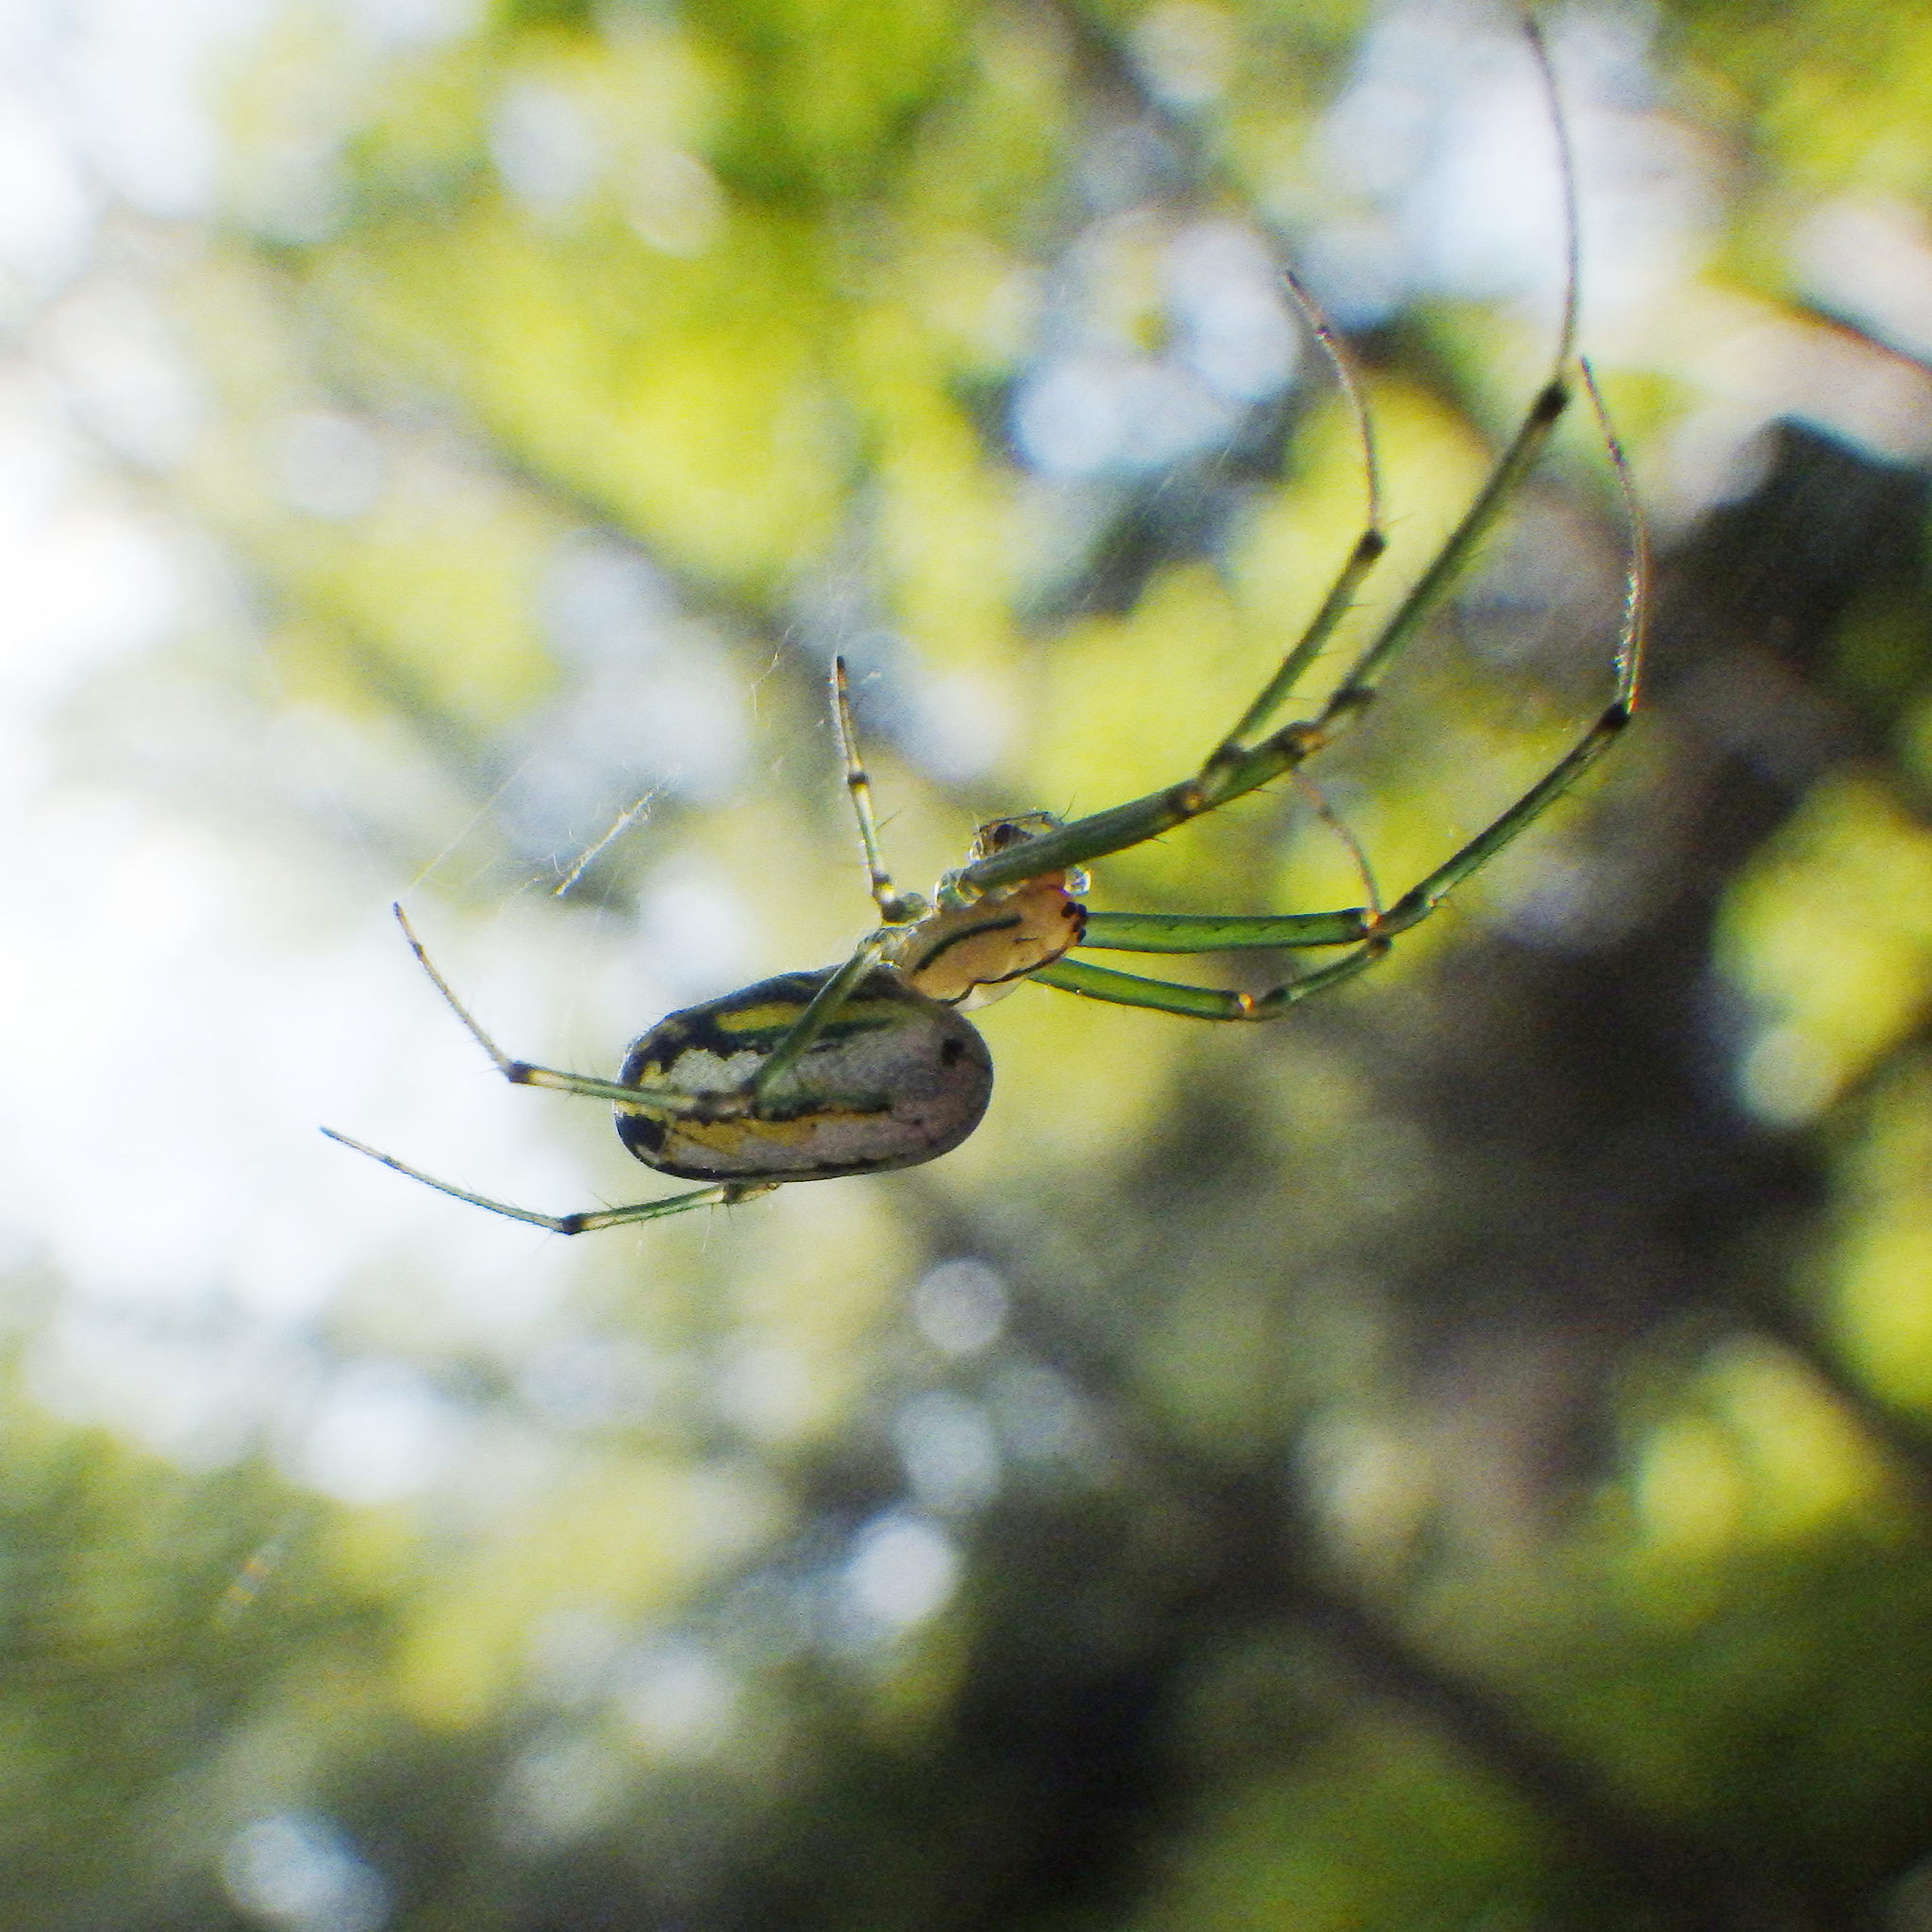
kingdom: Animalia
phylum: Arthropoda
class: Arachnida
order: Araneae
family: Tetragnathidae
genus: Leucauge
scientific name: Leucauge venusta
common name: Longjawed orb weavers
